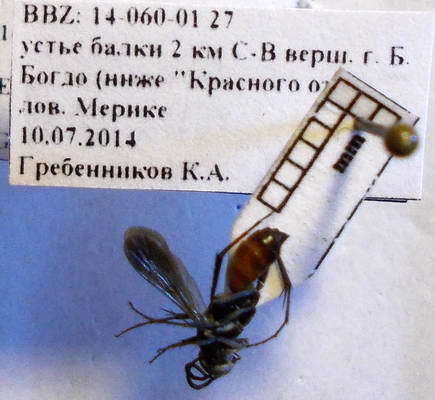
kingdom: Animalia
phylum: Arthropoda
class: Insecta
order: Hymenoptera
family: Pompilidae
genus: Evagetes
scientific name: Evagetes dubius
